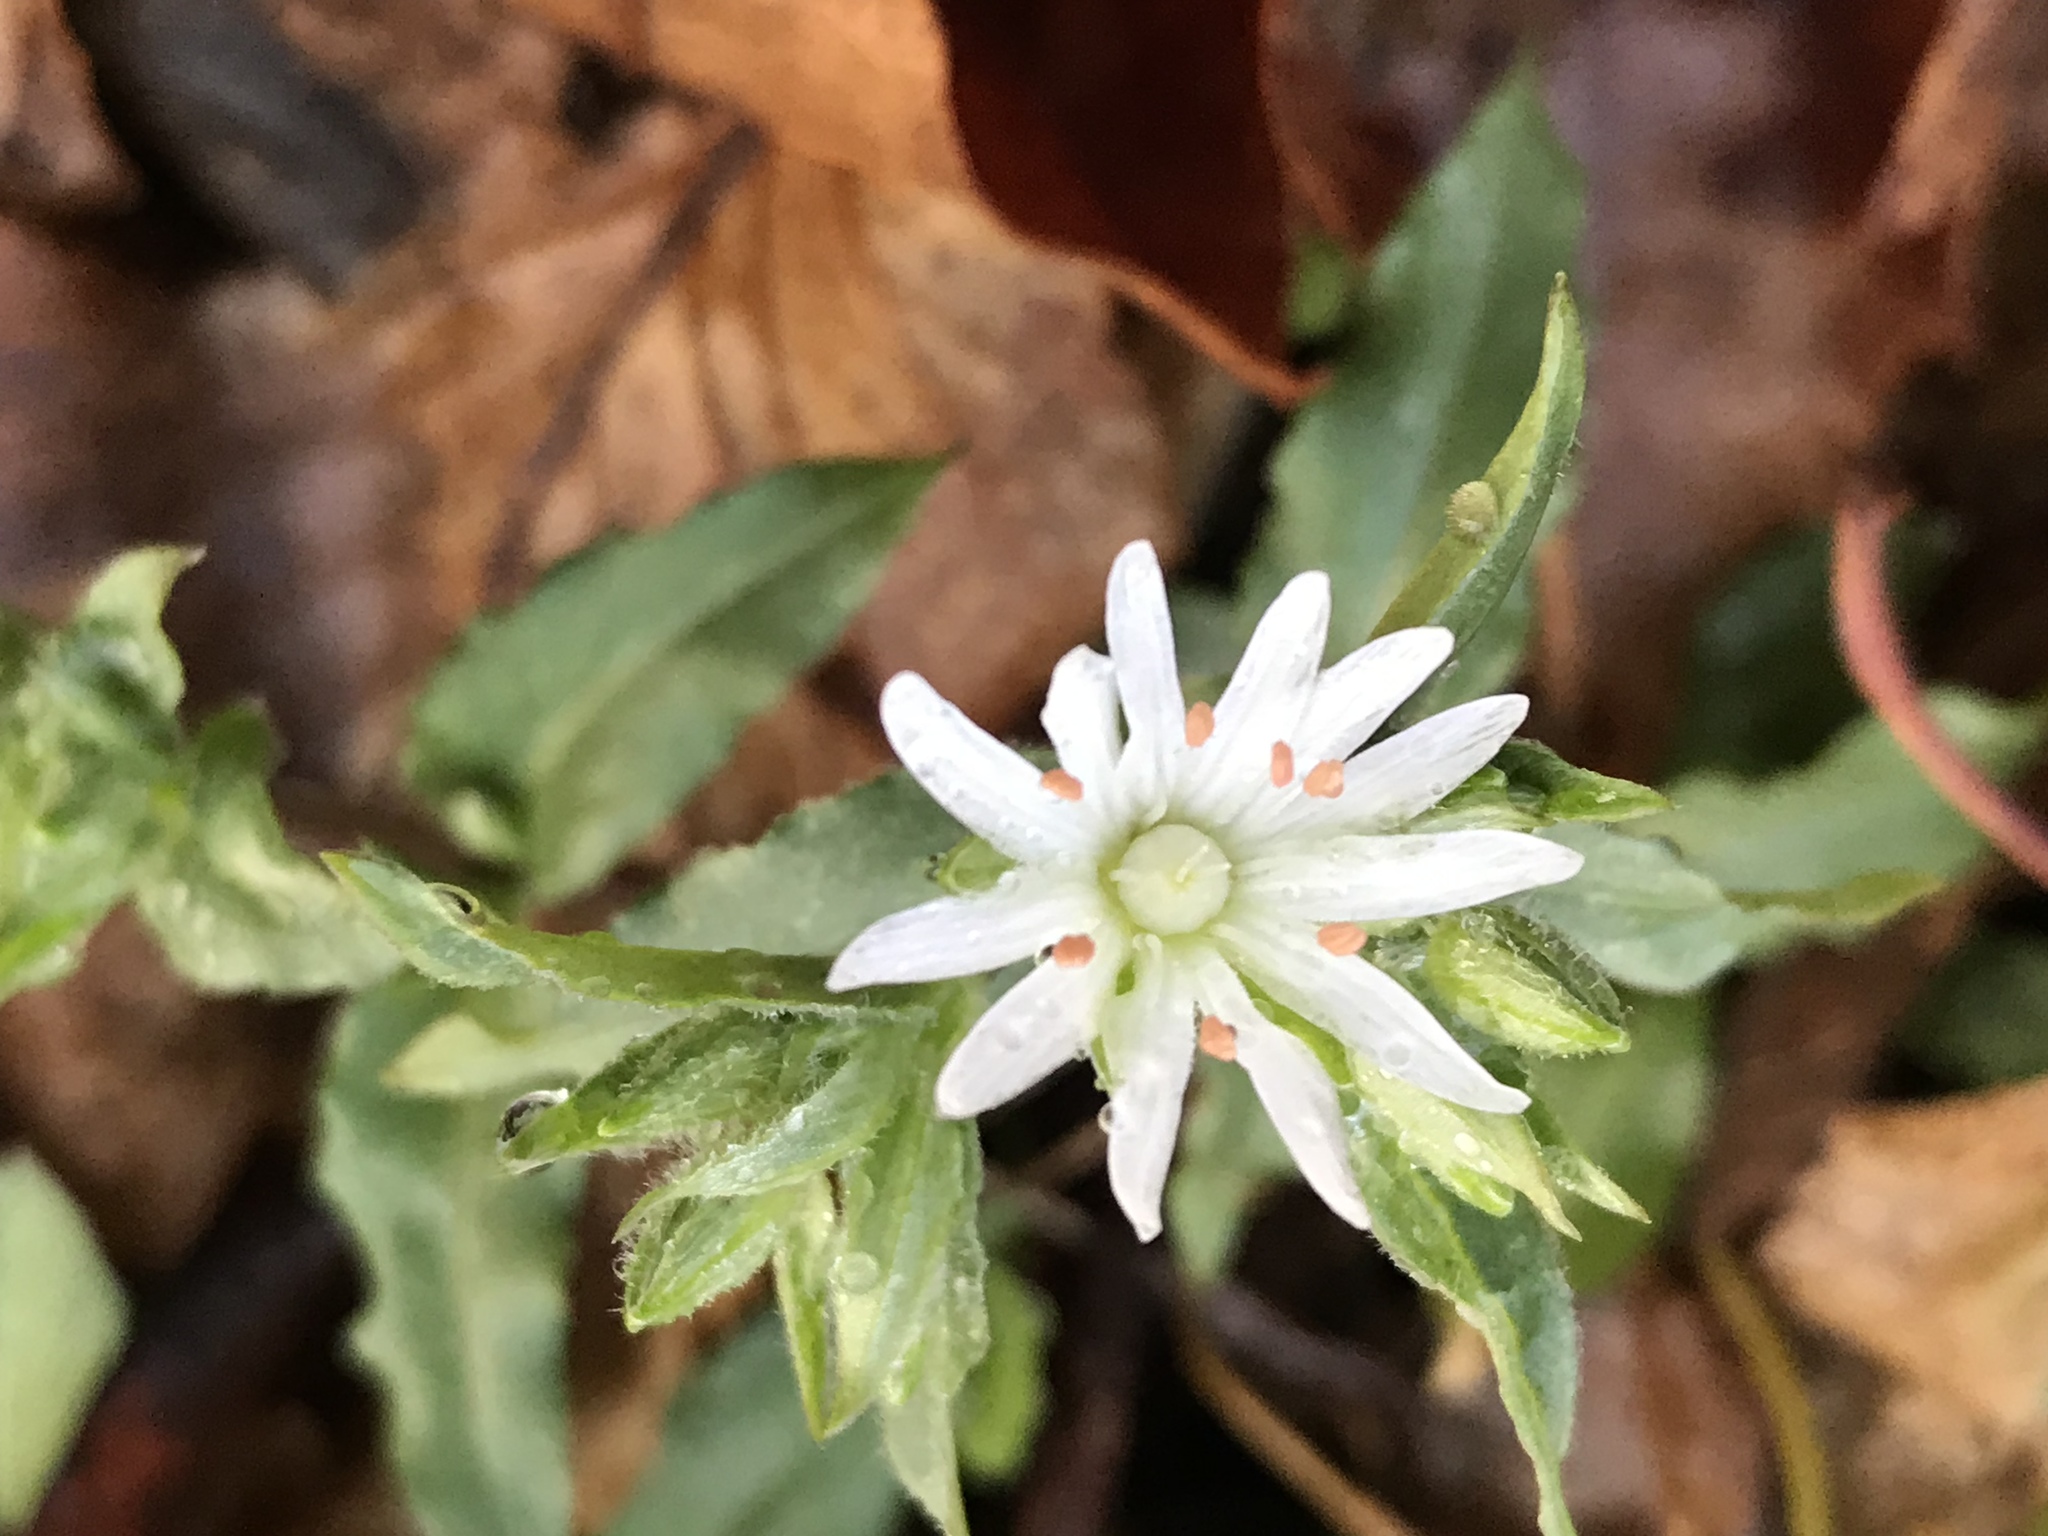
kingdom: Plantae
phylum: Tracheophyta
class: Magnoliopsida
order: Caryophyllales
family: Caryophyllaceae
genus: Stellaria
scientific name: Stellaria pubera
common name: Star chickweed
